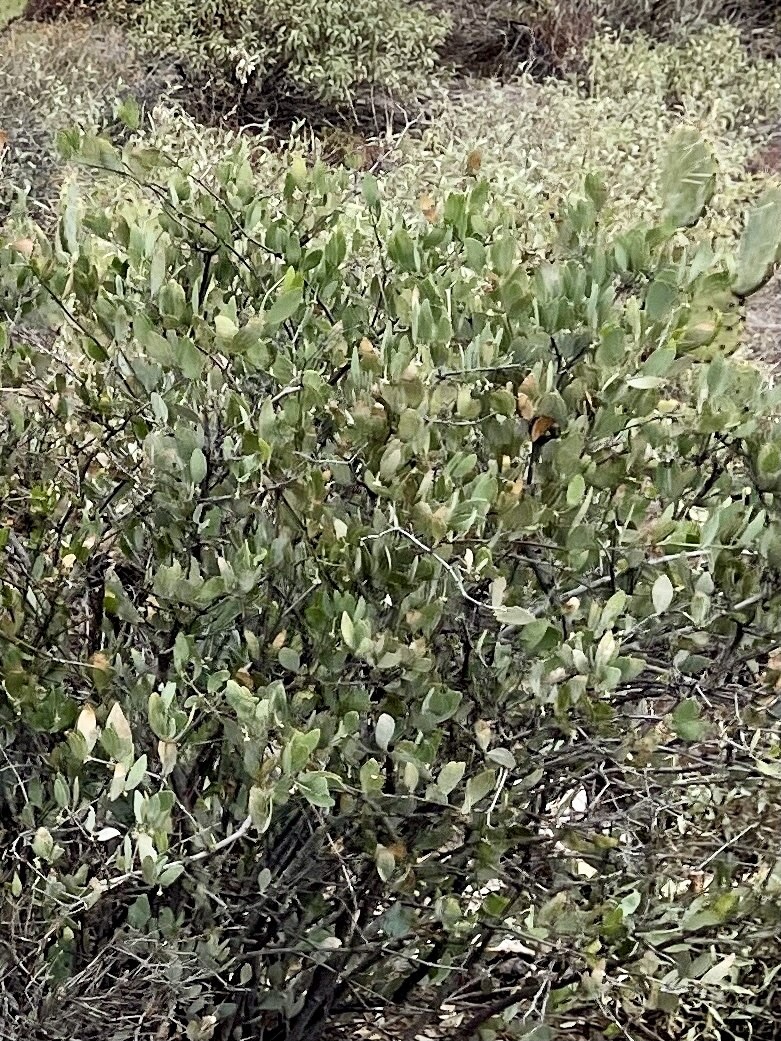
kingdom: Plantae
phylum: Tracheophyta
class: Magnoliopsida
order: Caryophyllales
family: Simmondsiaceae
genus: Simmondsia
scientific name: Simmondsia chinensis
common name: Jojoba
